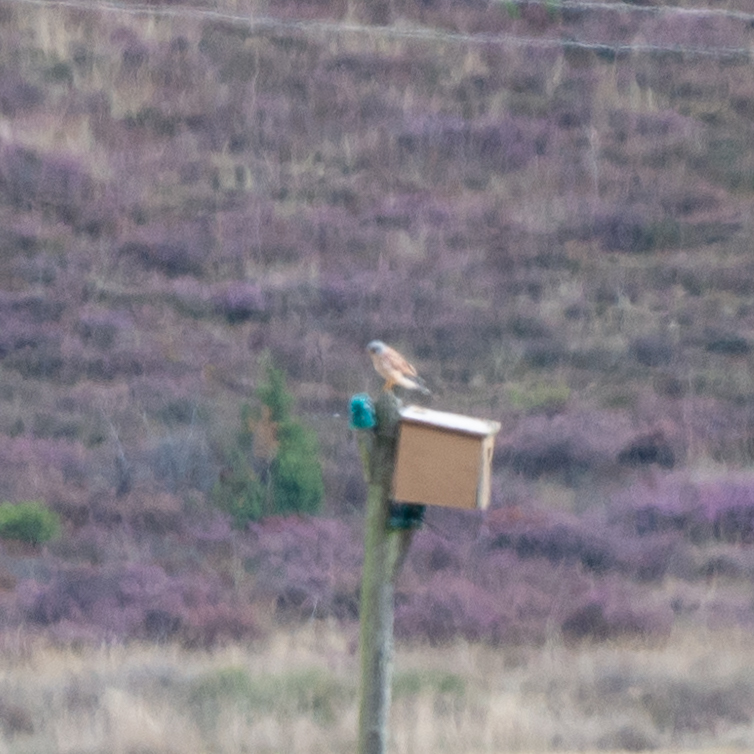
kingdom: Animalia
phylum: Chordata
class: Aves
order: Falconiformes
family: Falconidae
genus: Falco
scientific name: Falco naumanni
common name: Lesser kestrel
